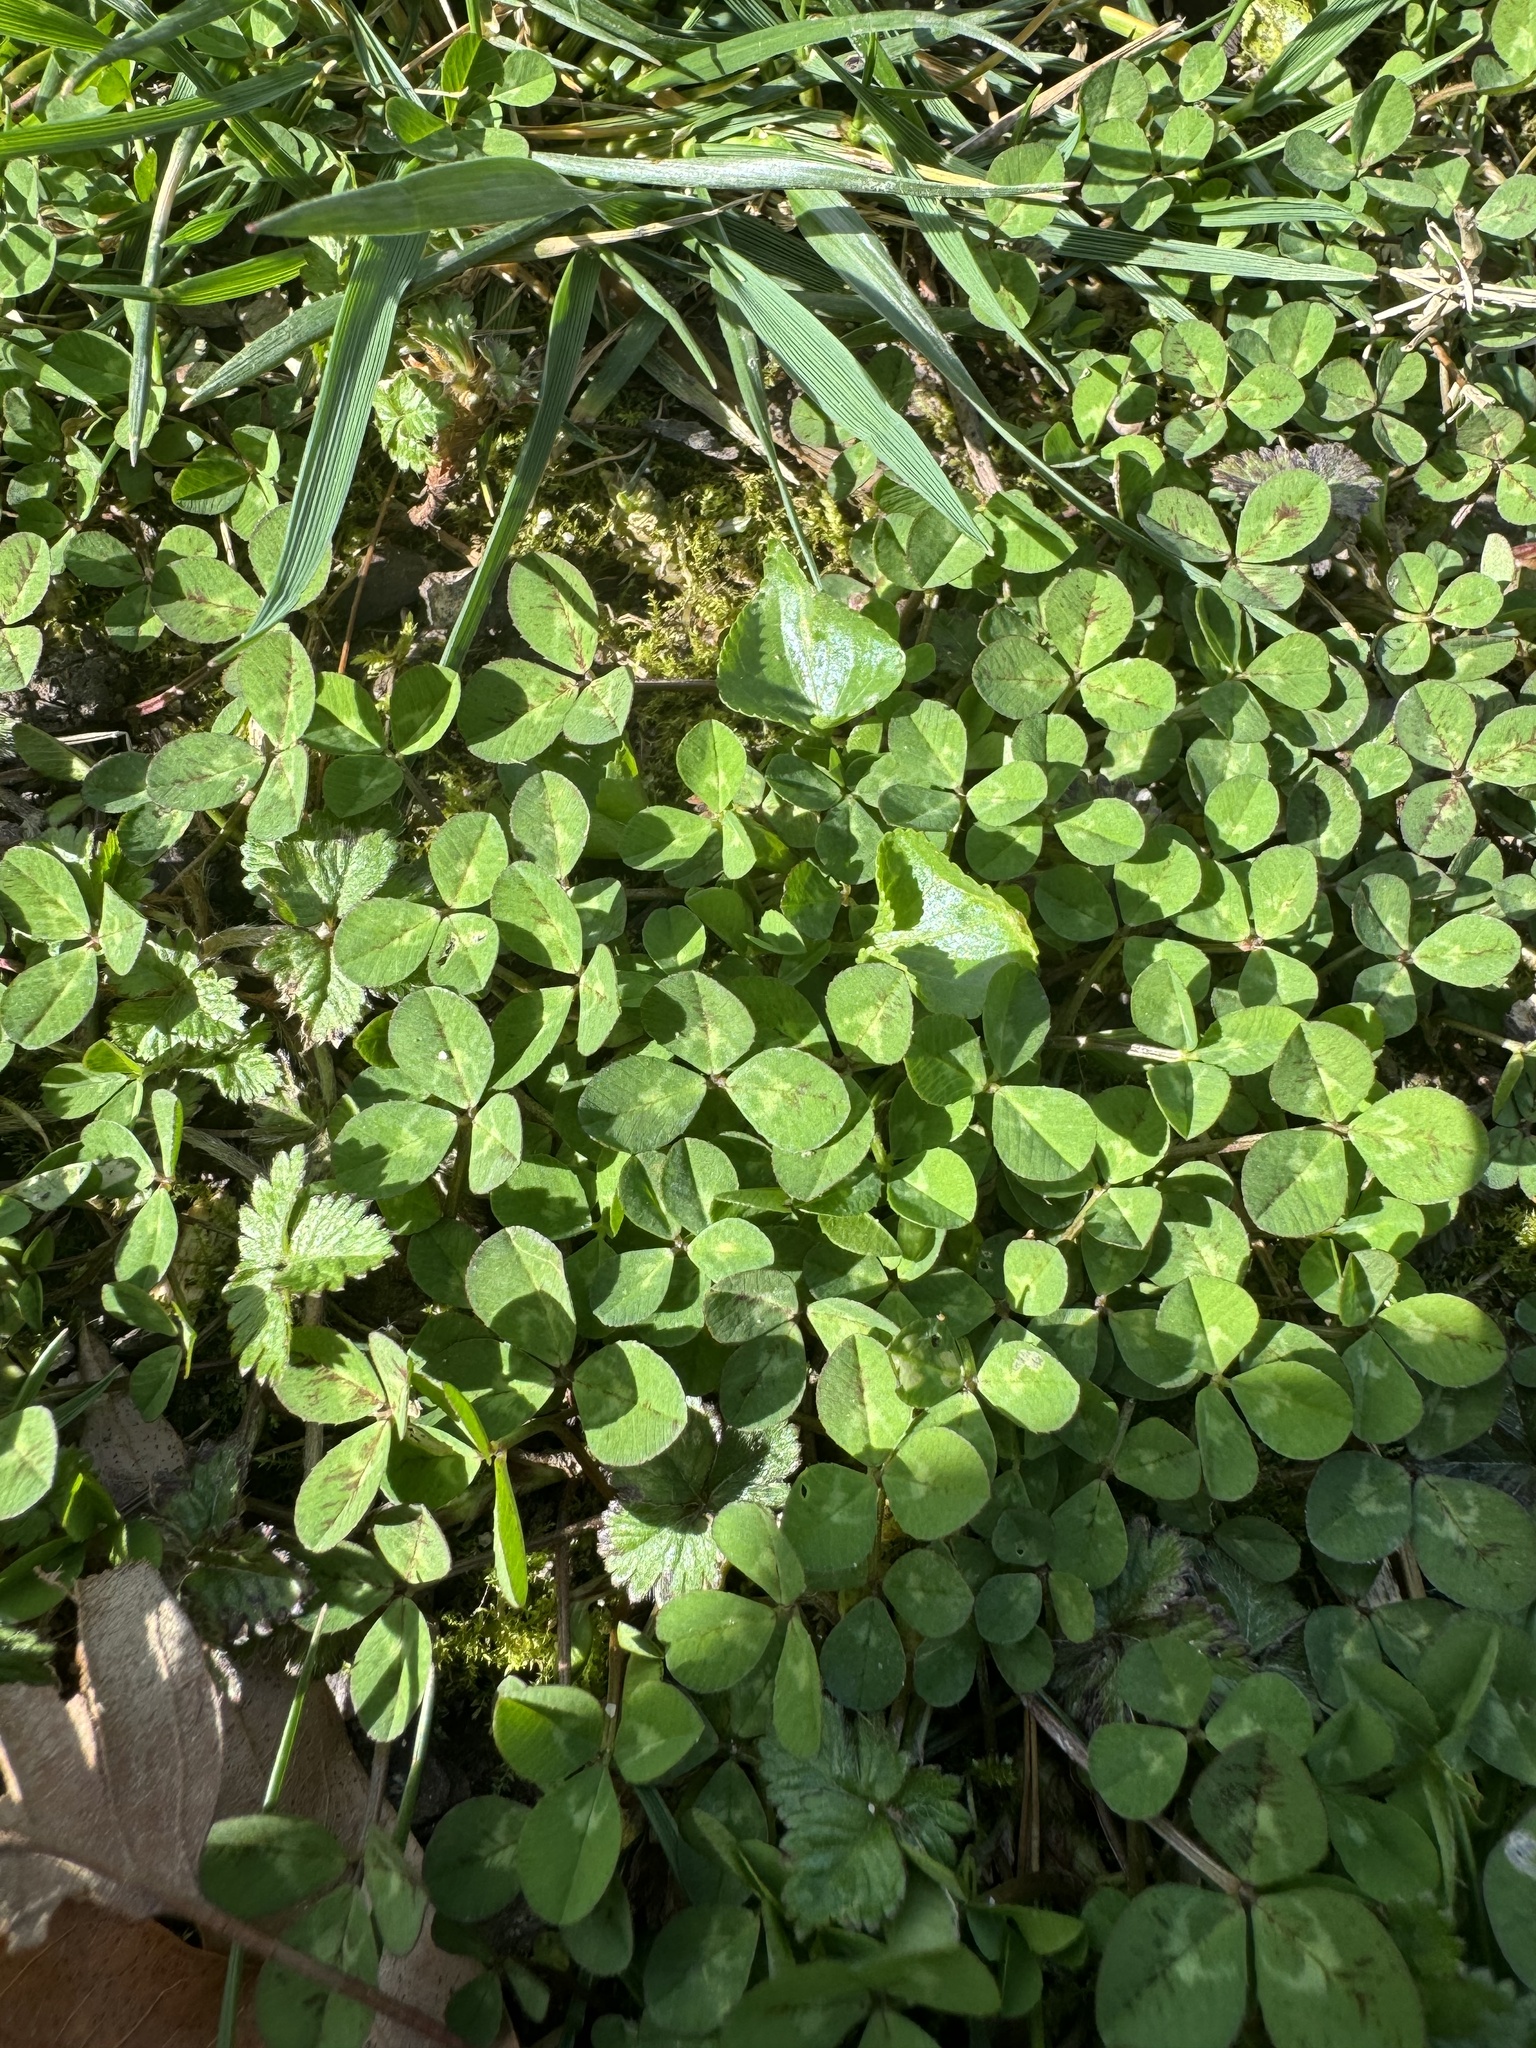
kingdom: Plantae
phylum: Tracheophyta
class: Magnoliopsida
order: Fabales
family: Fabaceae
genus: Trifolium
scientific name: Trifolium repens
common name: White clover
